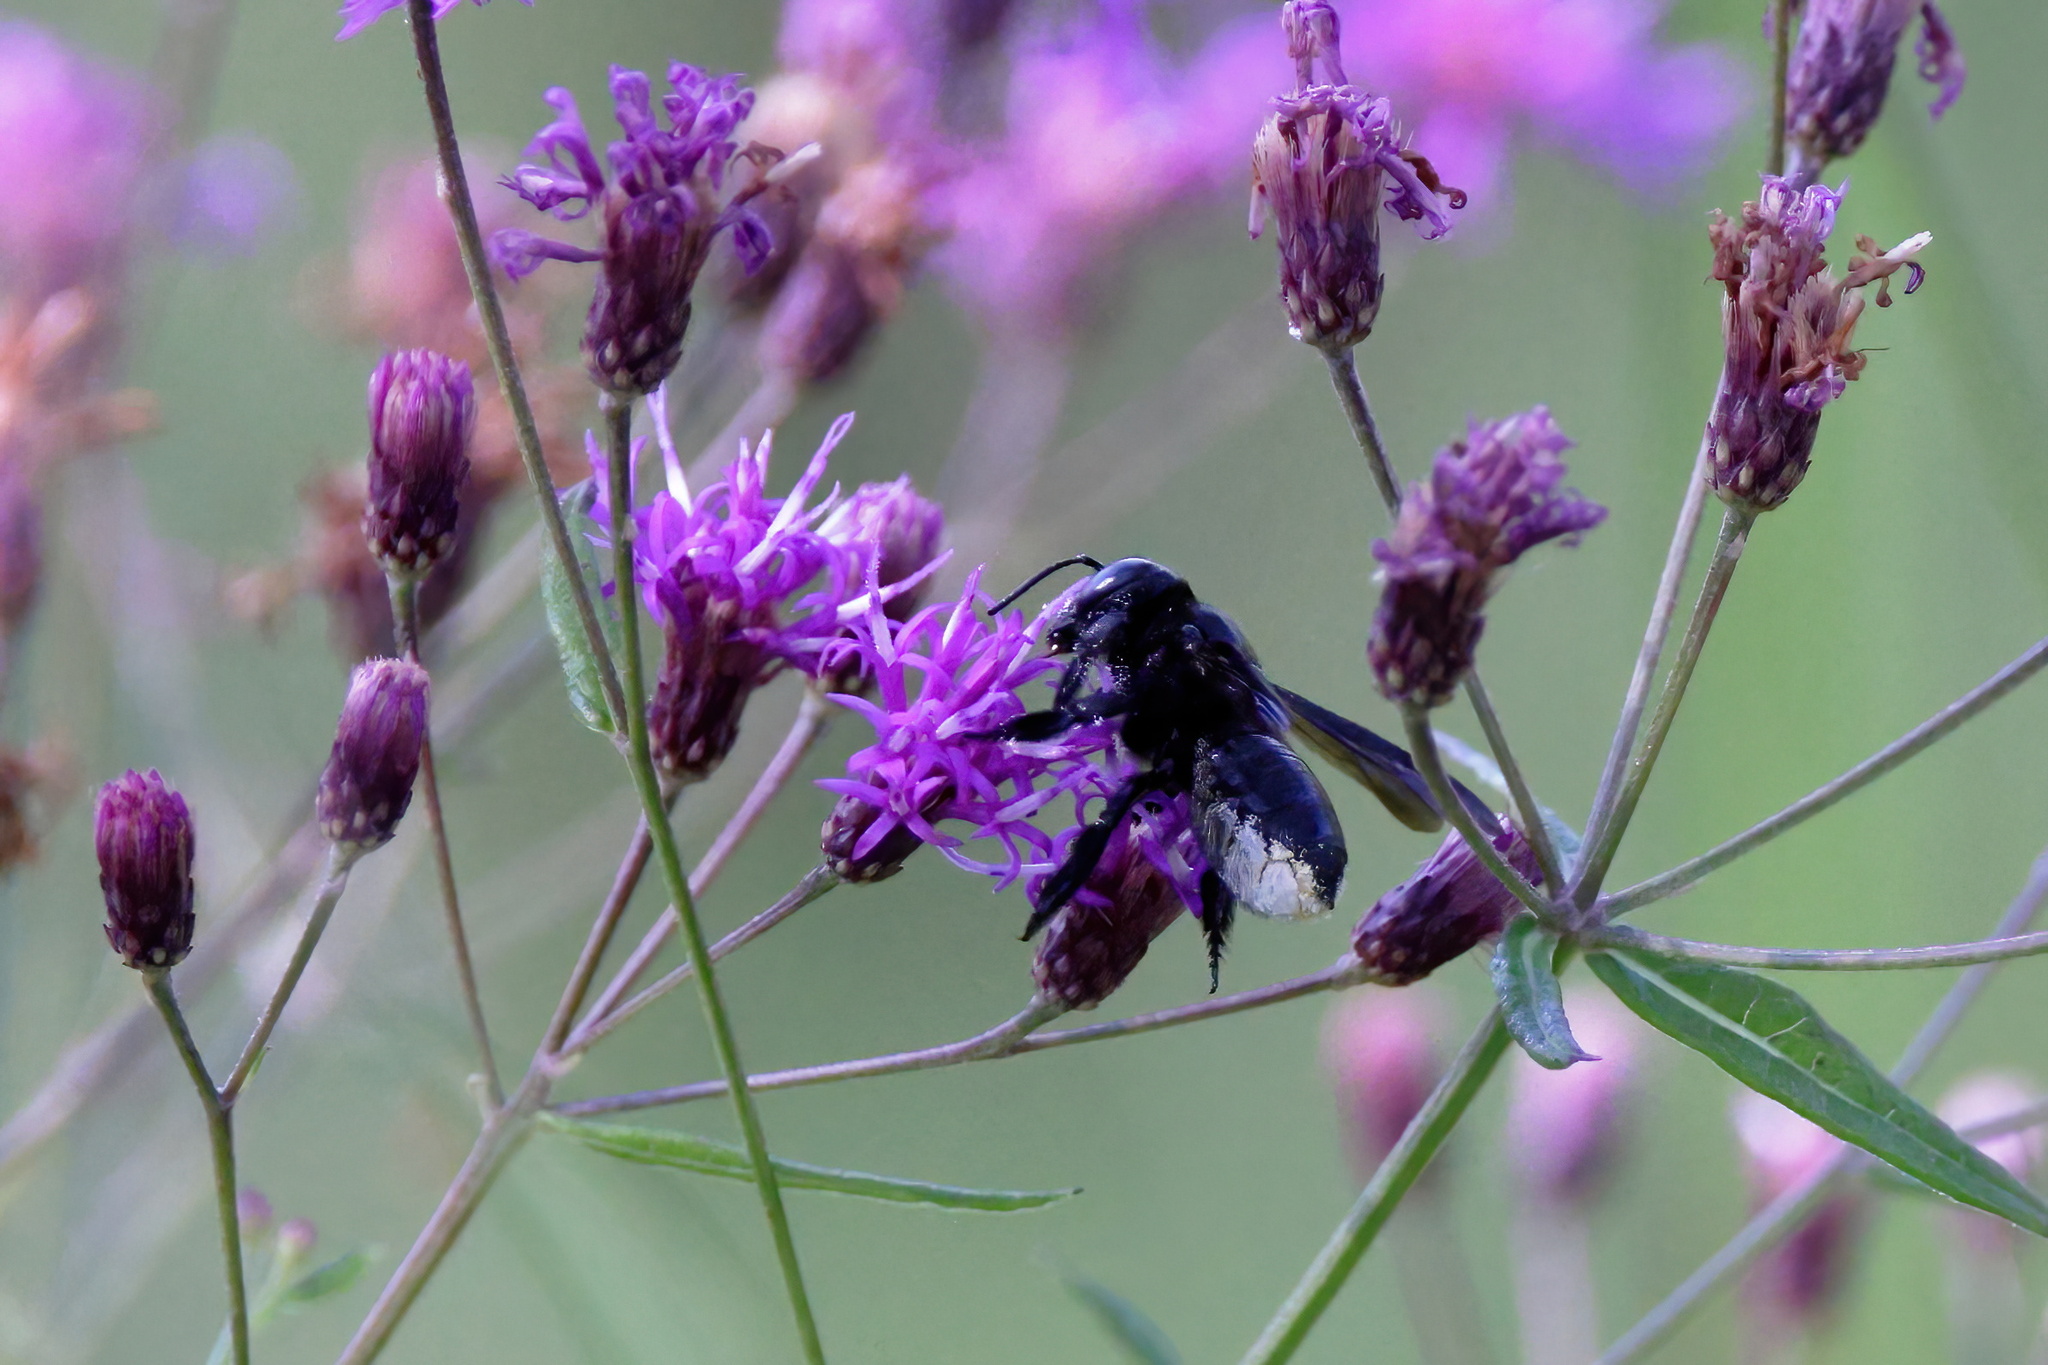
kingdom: Animalia
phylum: Arthropoda
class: Insecta
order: Hymenoptera
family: Megachilidae
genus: Megachile
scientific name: Megachile xylocopoides
